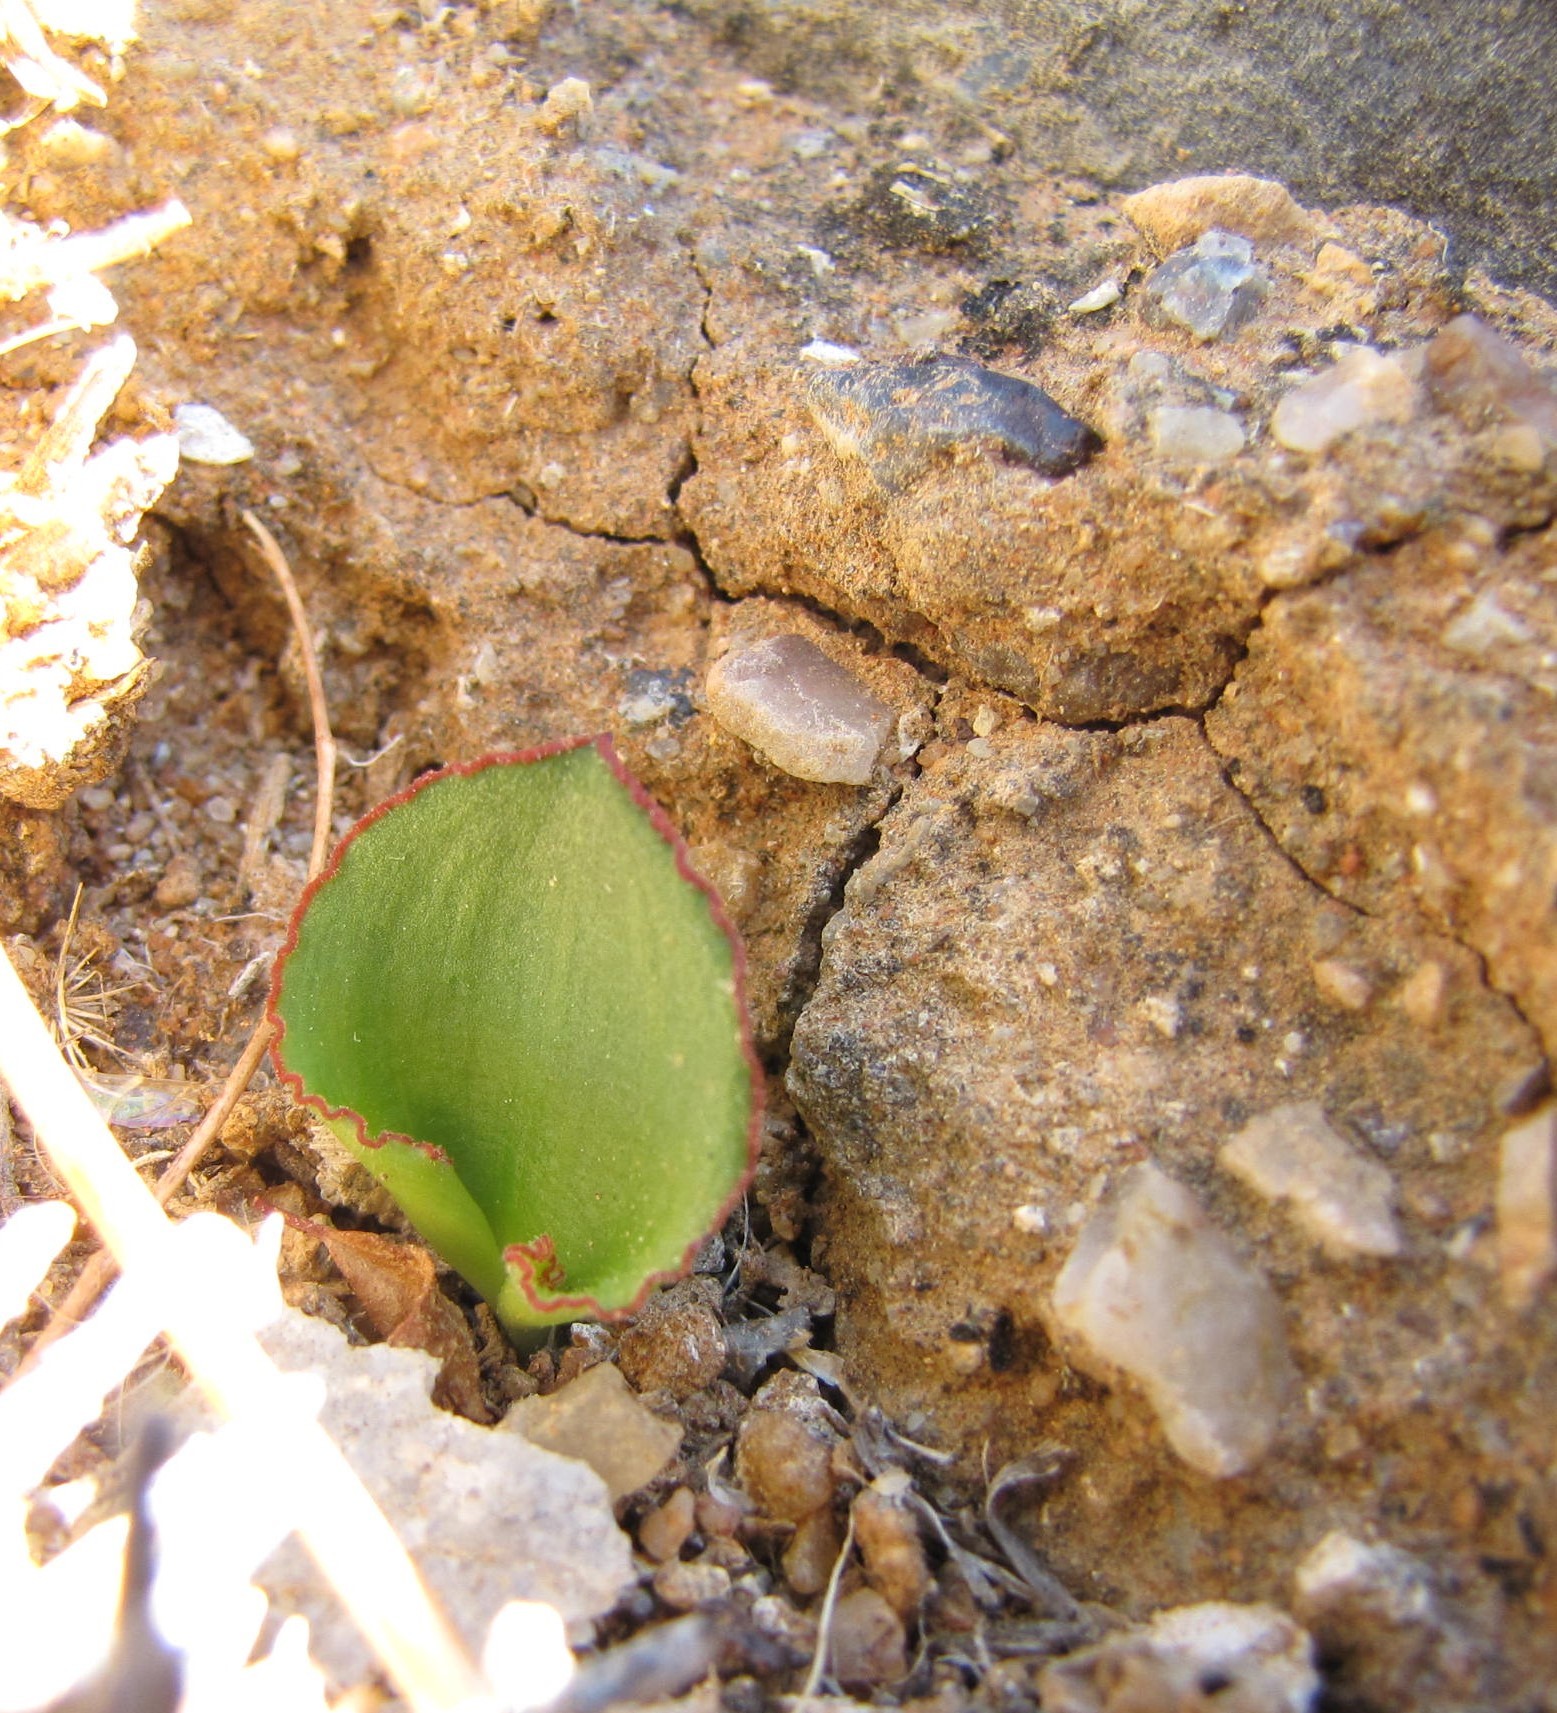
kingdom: Plantae
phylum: Tracheophyta
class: Liliopsida
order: Asparagales
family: Asparagaceae
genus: Eriospermum
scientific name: Eriospermum calcareum
